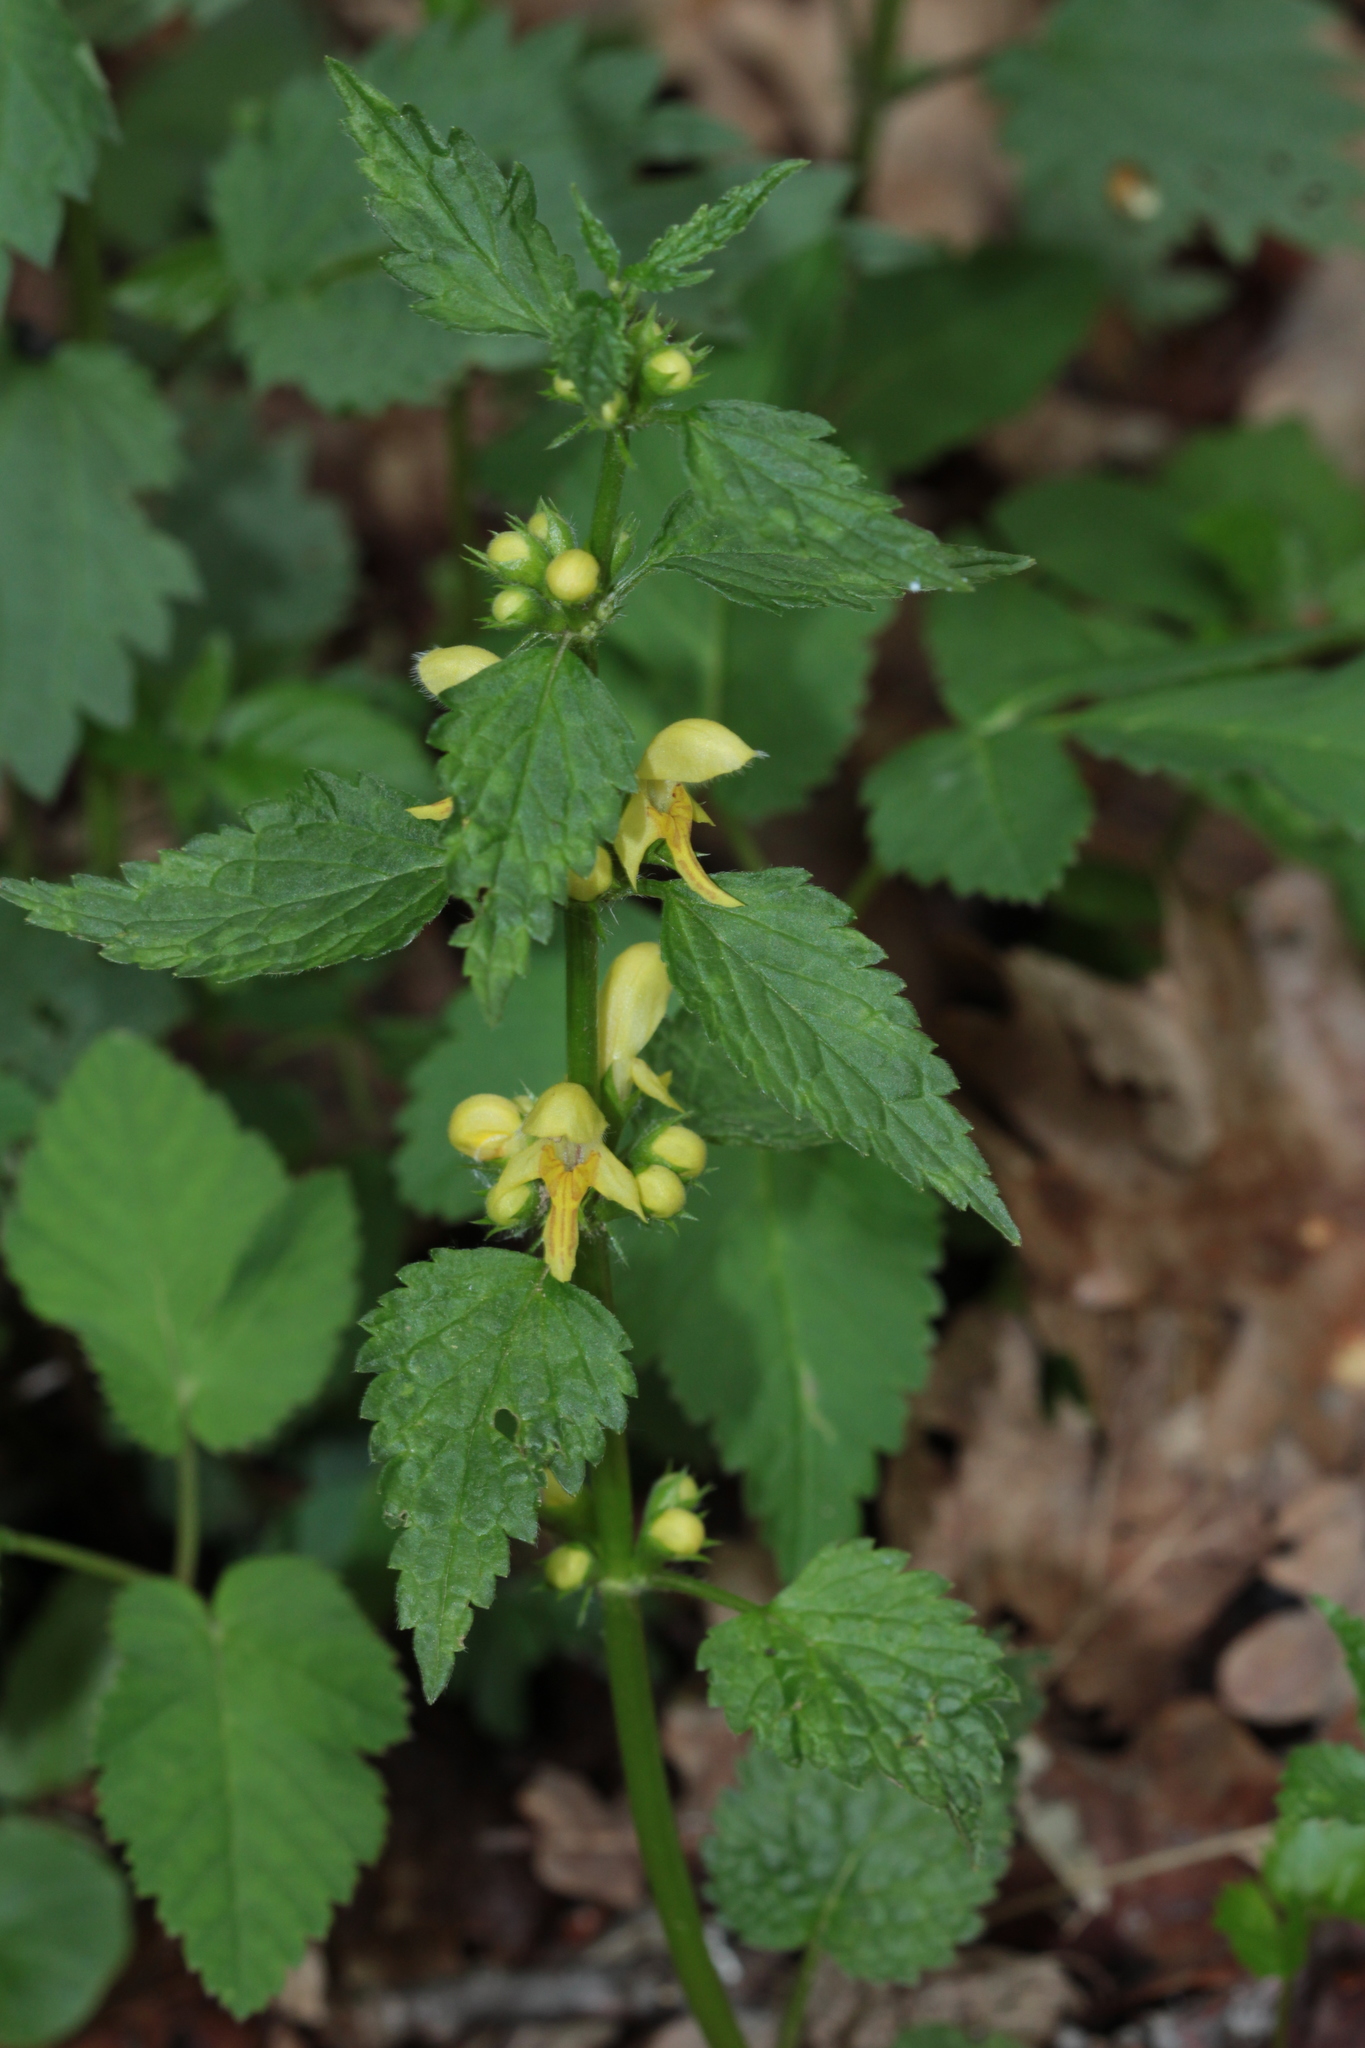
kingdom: Plantae
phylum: Tracheophyta
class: Magnoliopsida
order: Lamiales
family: Lamiaceae
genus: Lamium
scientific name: Lamium galeobdolon
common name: Yellow archangel
